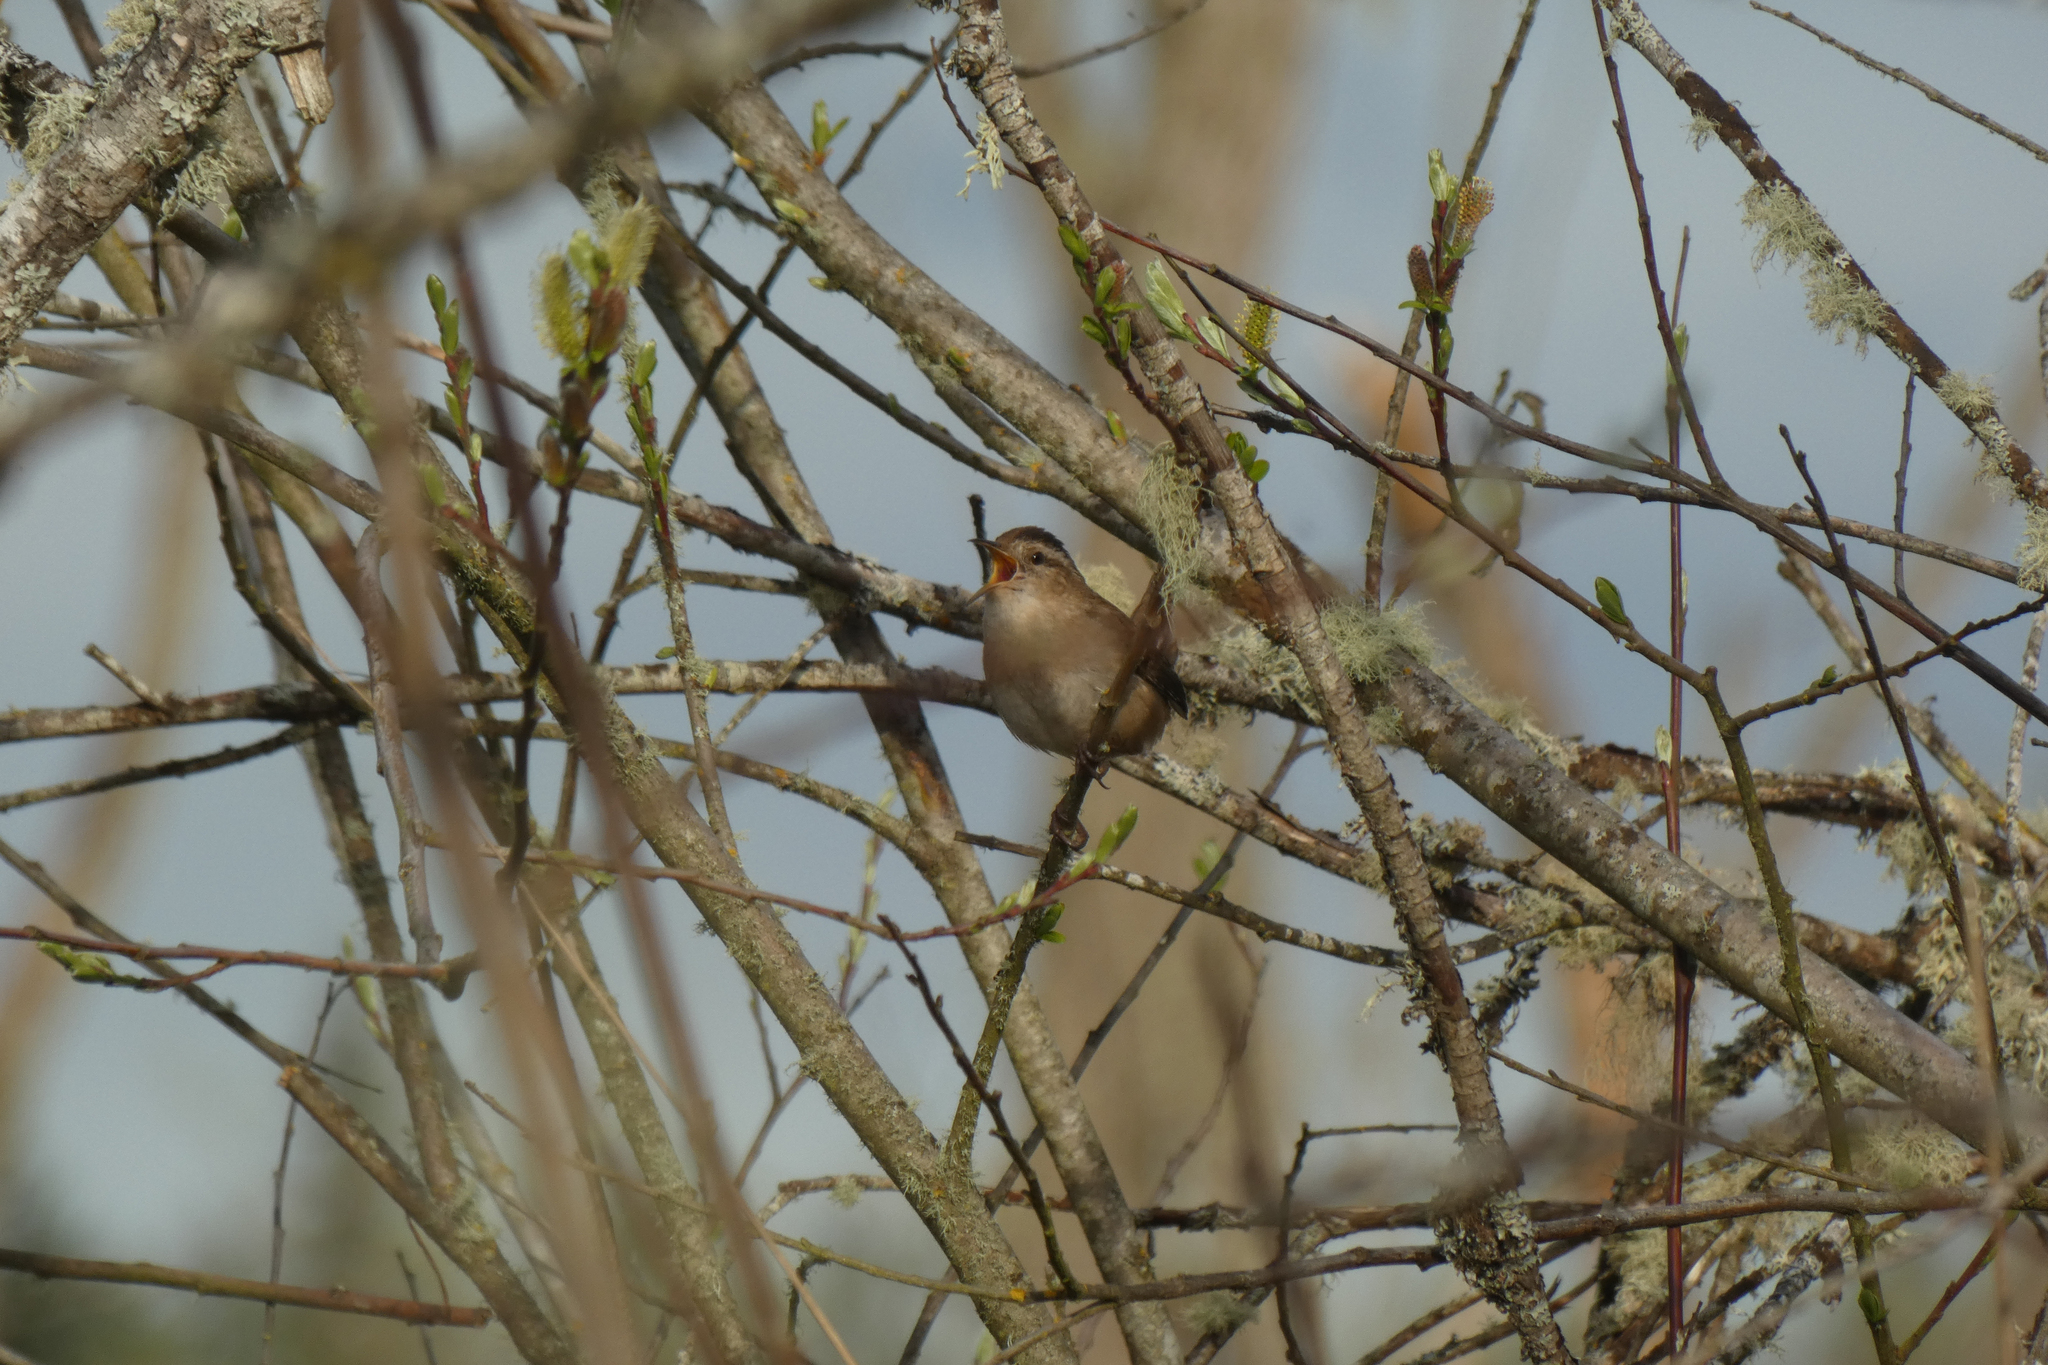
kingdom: Animalia
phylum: Chordata
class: Aves
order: Passeriformes
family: Troglodytidae
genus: Cistothorus
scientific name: Cistothorus palustris
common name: Marsh wren
